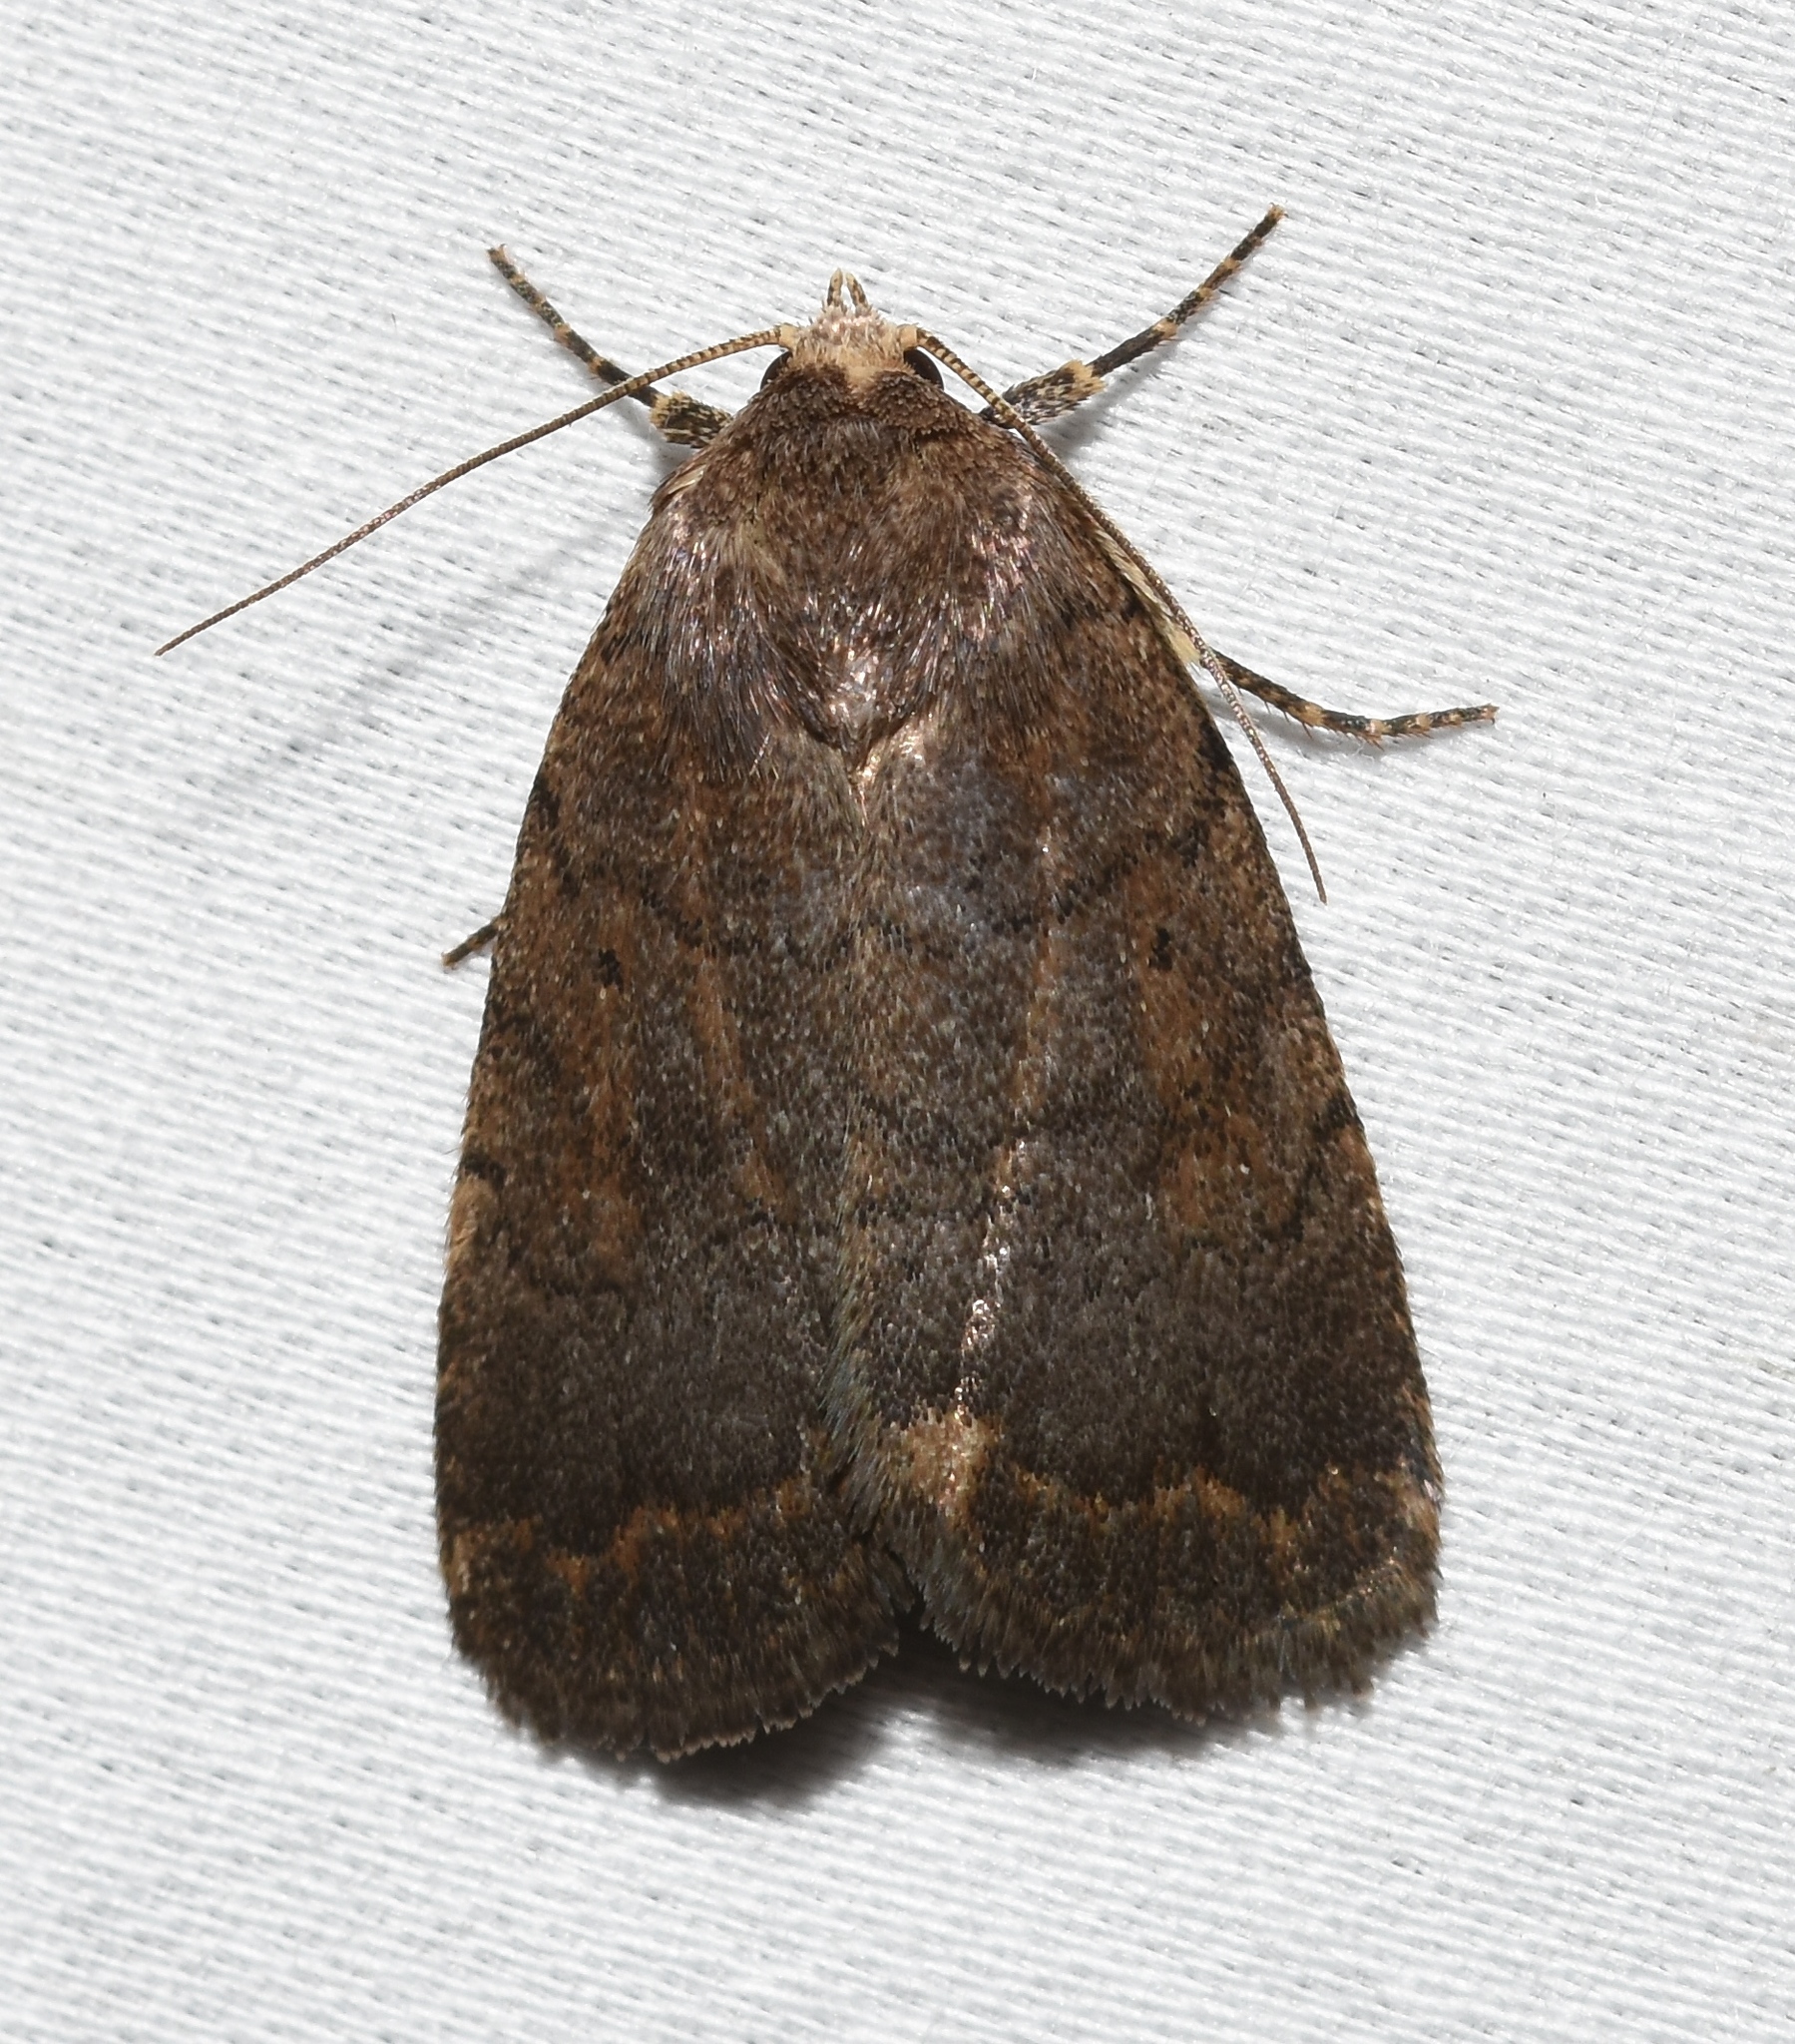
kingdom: Animalia
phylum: Arthropoda
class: Insecta
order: Lepidoptera
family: Noctuidae
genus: Athetis
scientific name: Athetis tarda
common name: Slowpoke moth
